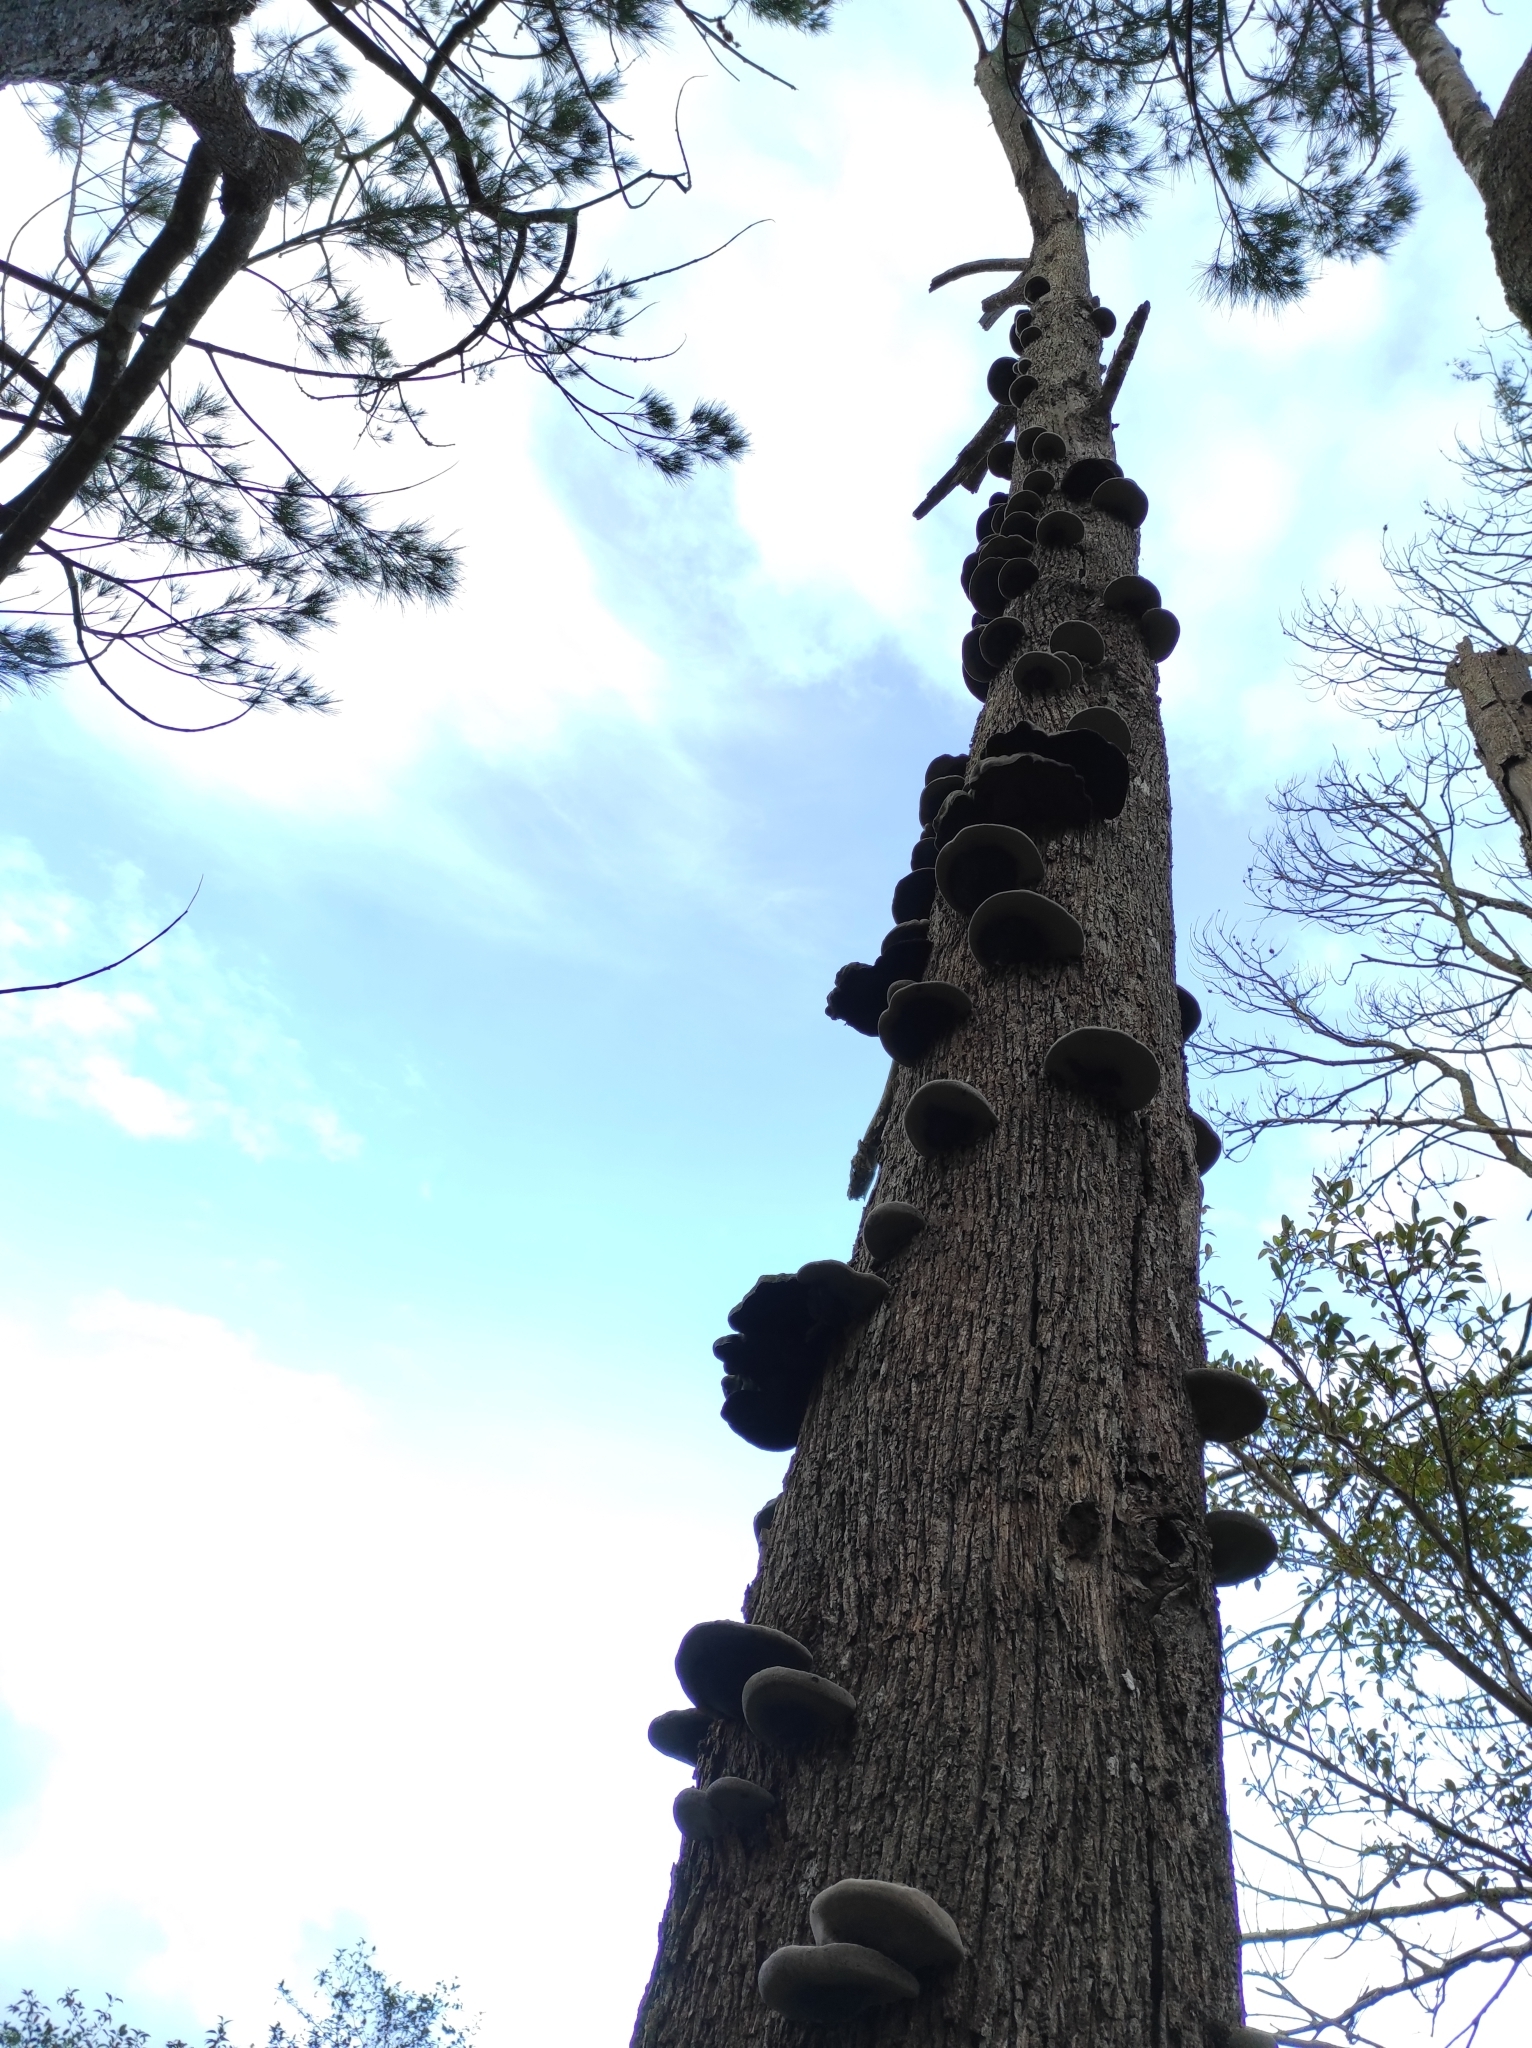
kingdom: Fungi
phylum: Basidiomycota
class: Agaricomycetes
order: Polyporales
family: Polyporaceae
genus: Fomes
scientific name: Fomes fasciatus
